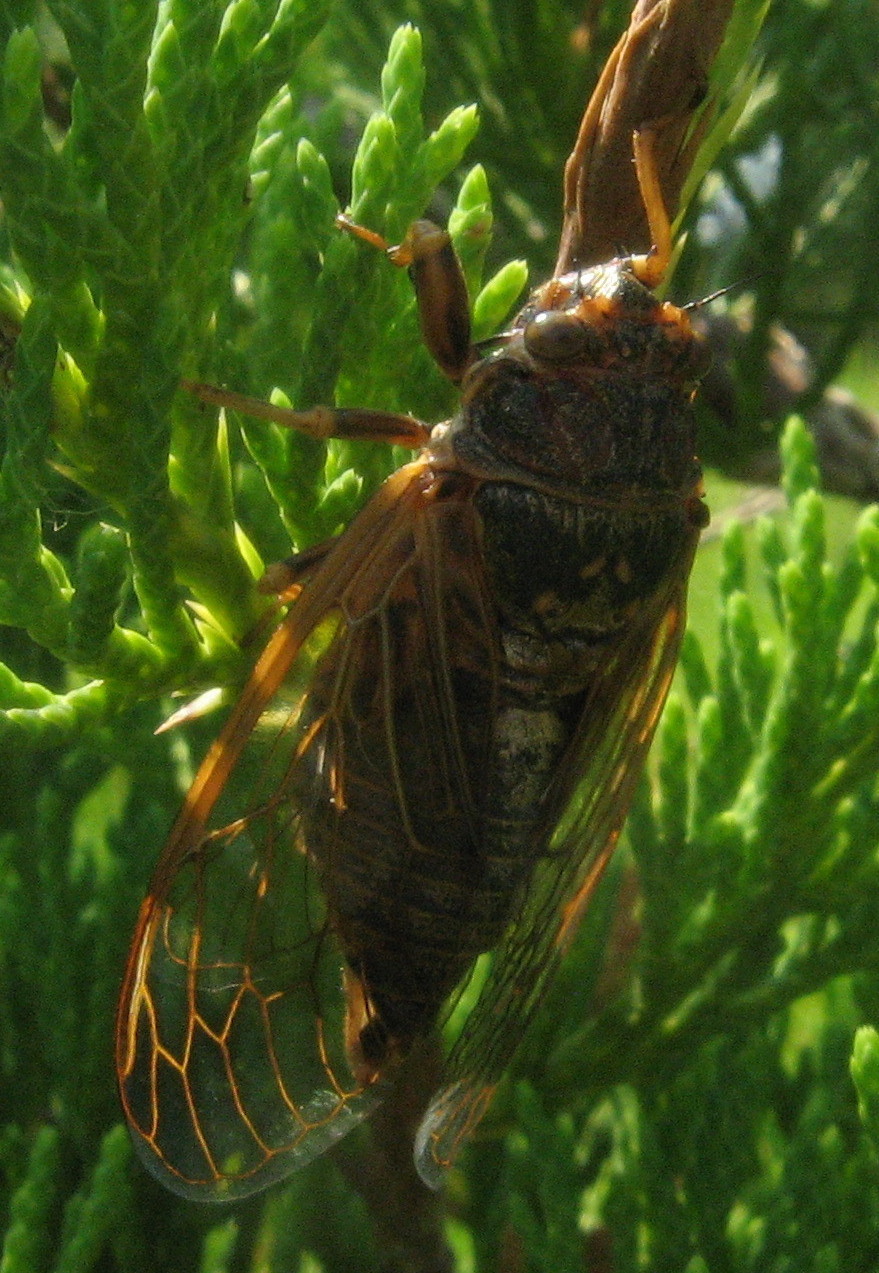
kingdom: Animalia
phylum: Arthropoda
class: Insecta
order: Hemiptera
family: Cicadidae
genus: Okanagana
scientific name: Okanagana balli
